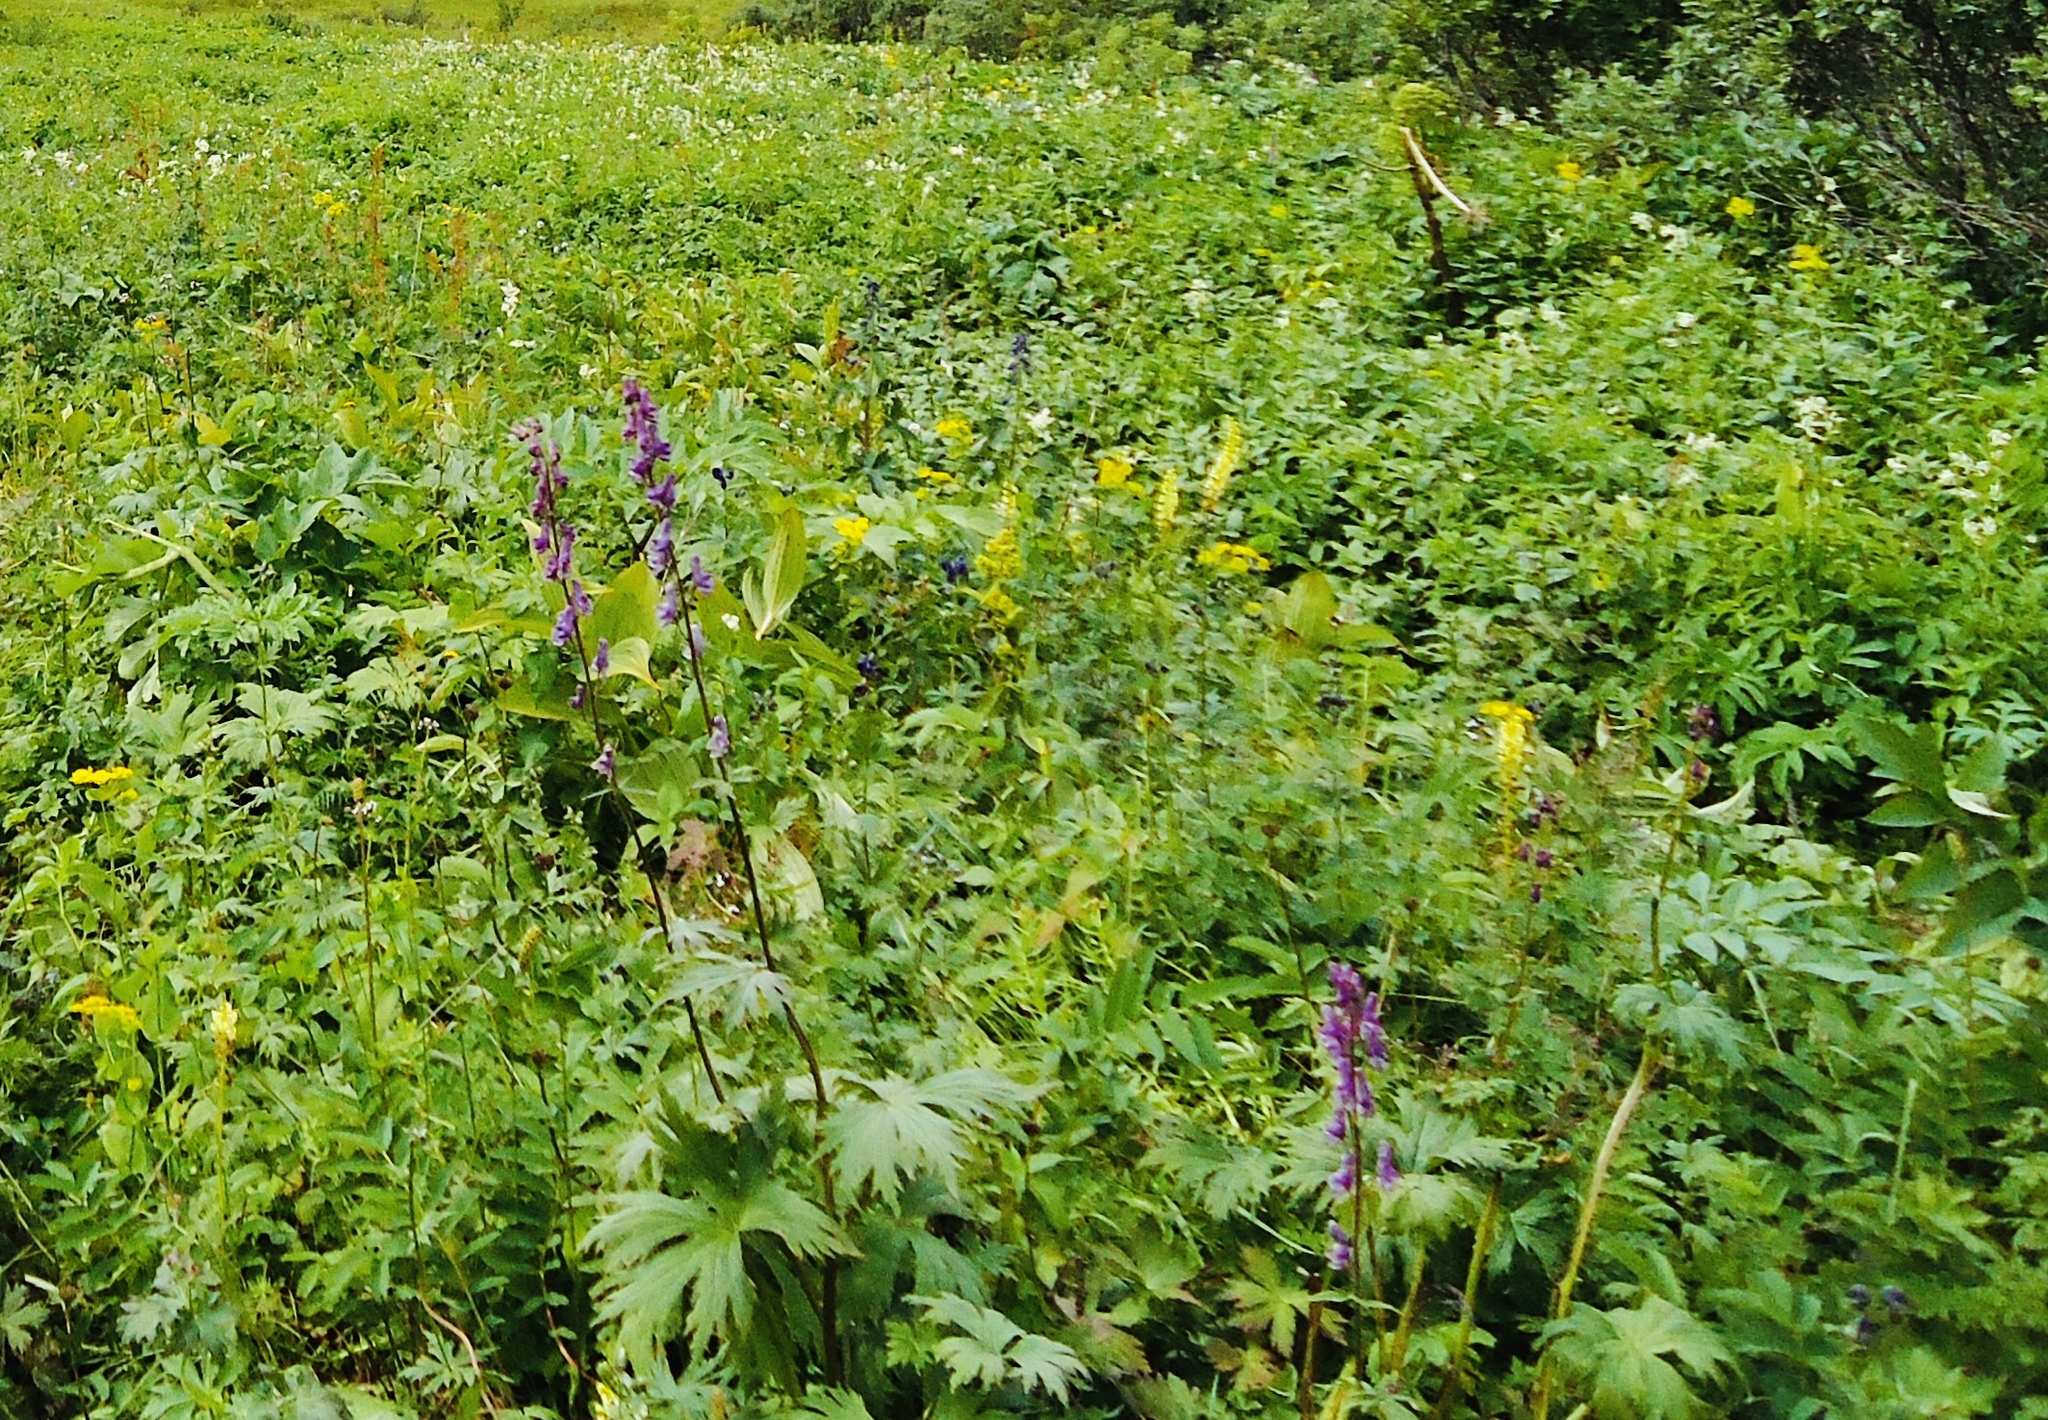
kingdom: Plantae
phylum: Tracheophyta
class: Magnoliopsida
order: Ranunculales
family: Ranunculaceae
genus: Aconitum
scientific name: Aconitum septentrionale
